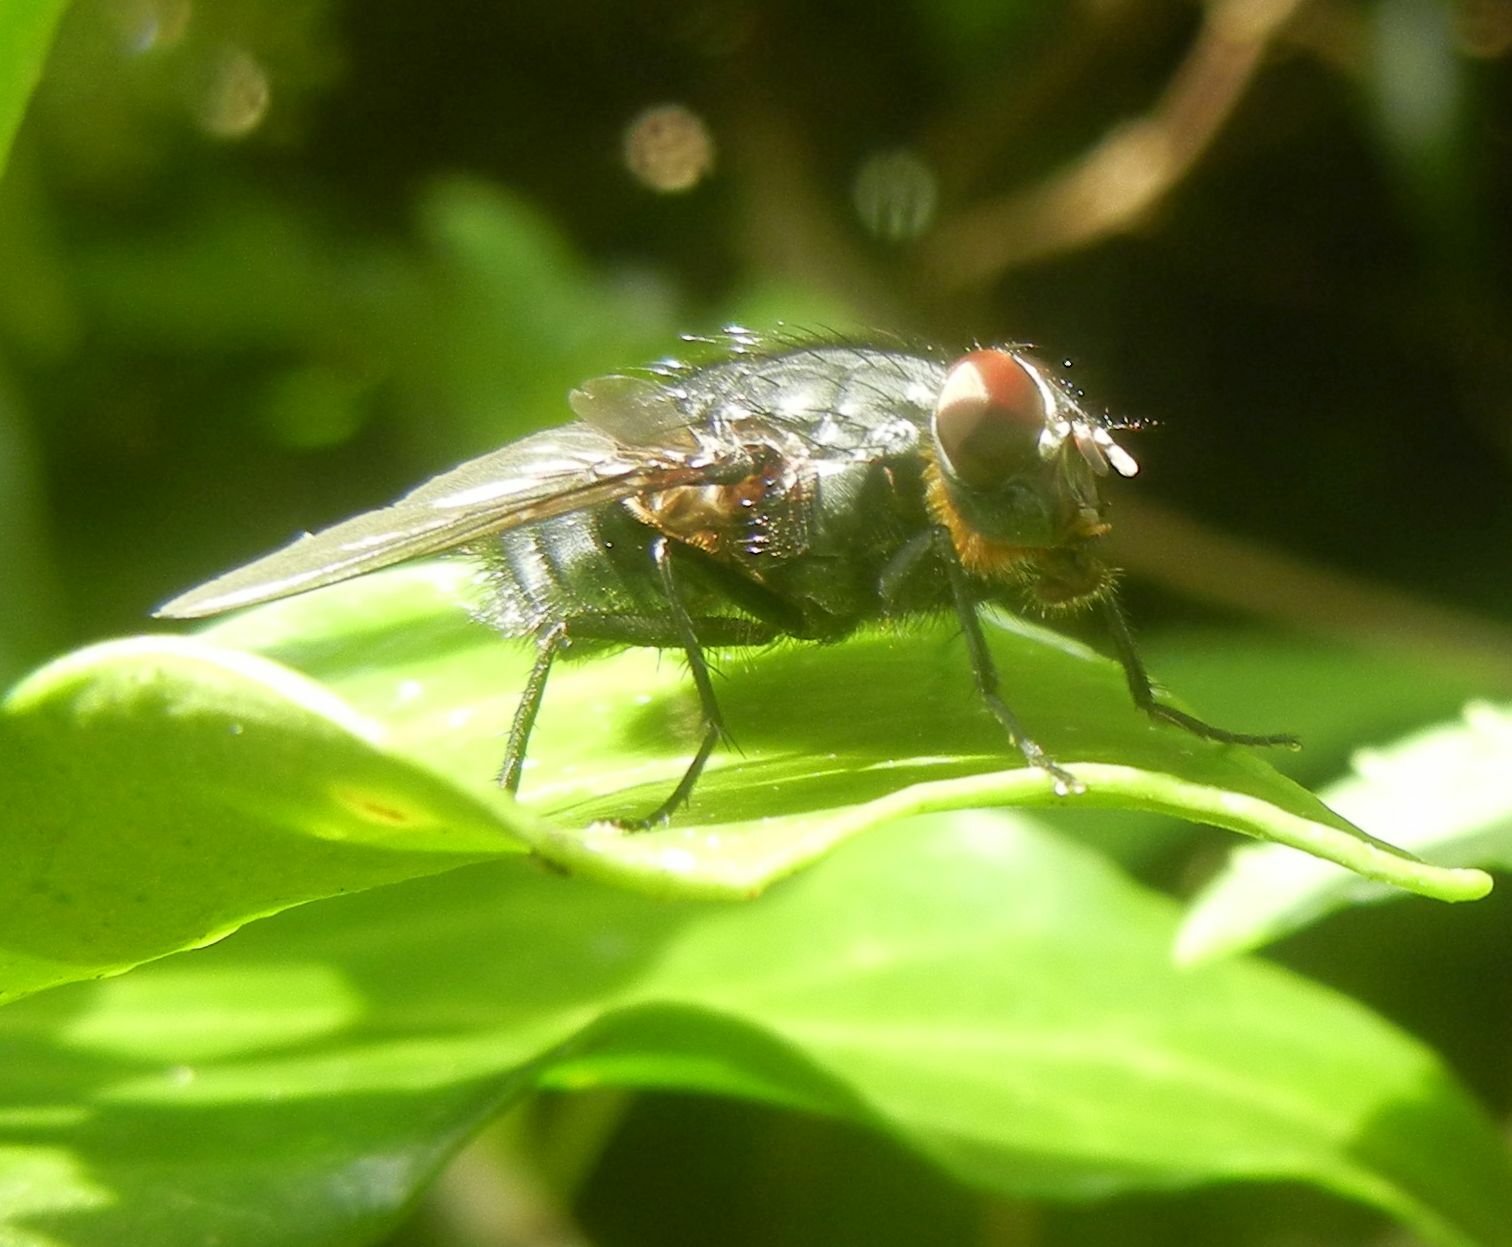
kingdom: Animalia
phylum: Arthropoda
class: Insecta
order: Diptera
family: Calliphoridae
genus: Calliphora
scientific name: Calliphora vomitoria
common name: Blue bottle fly
